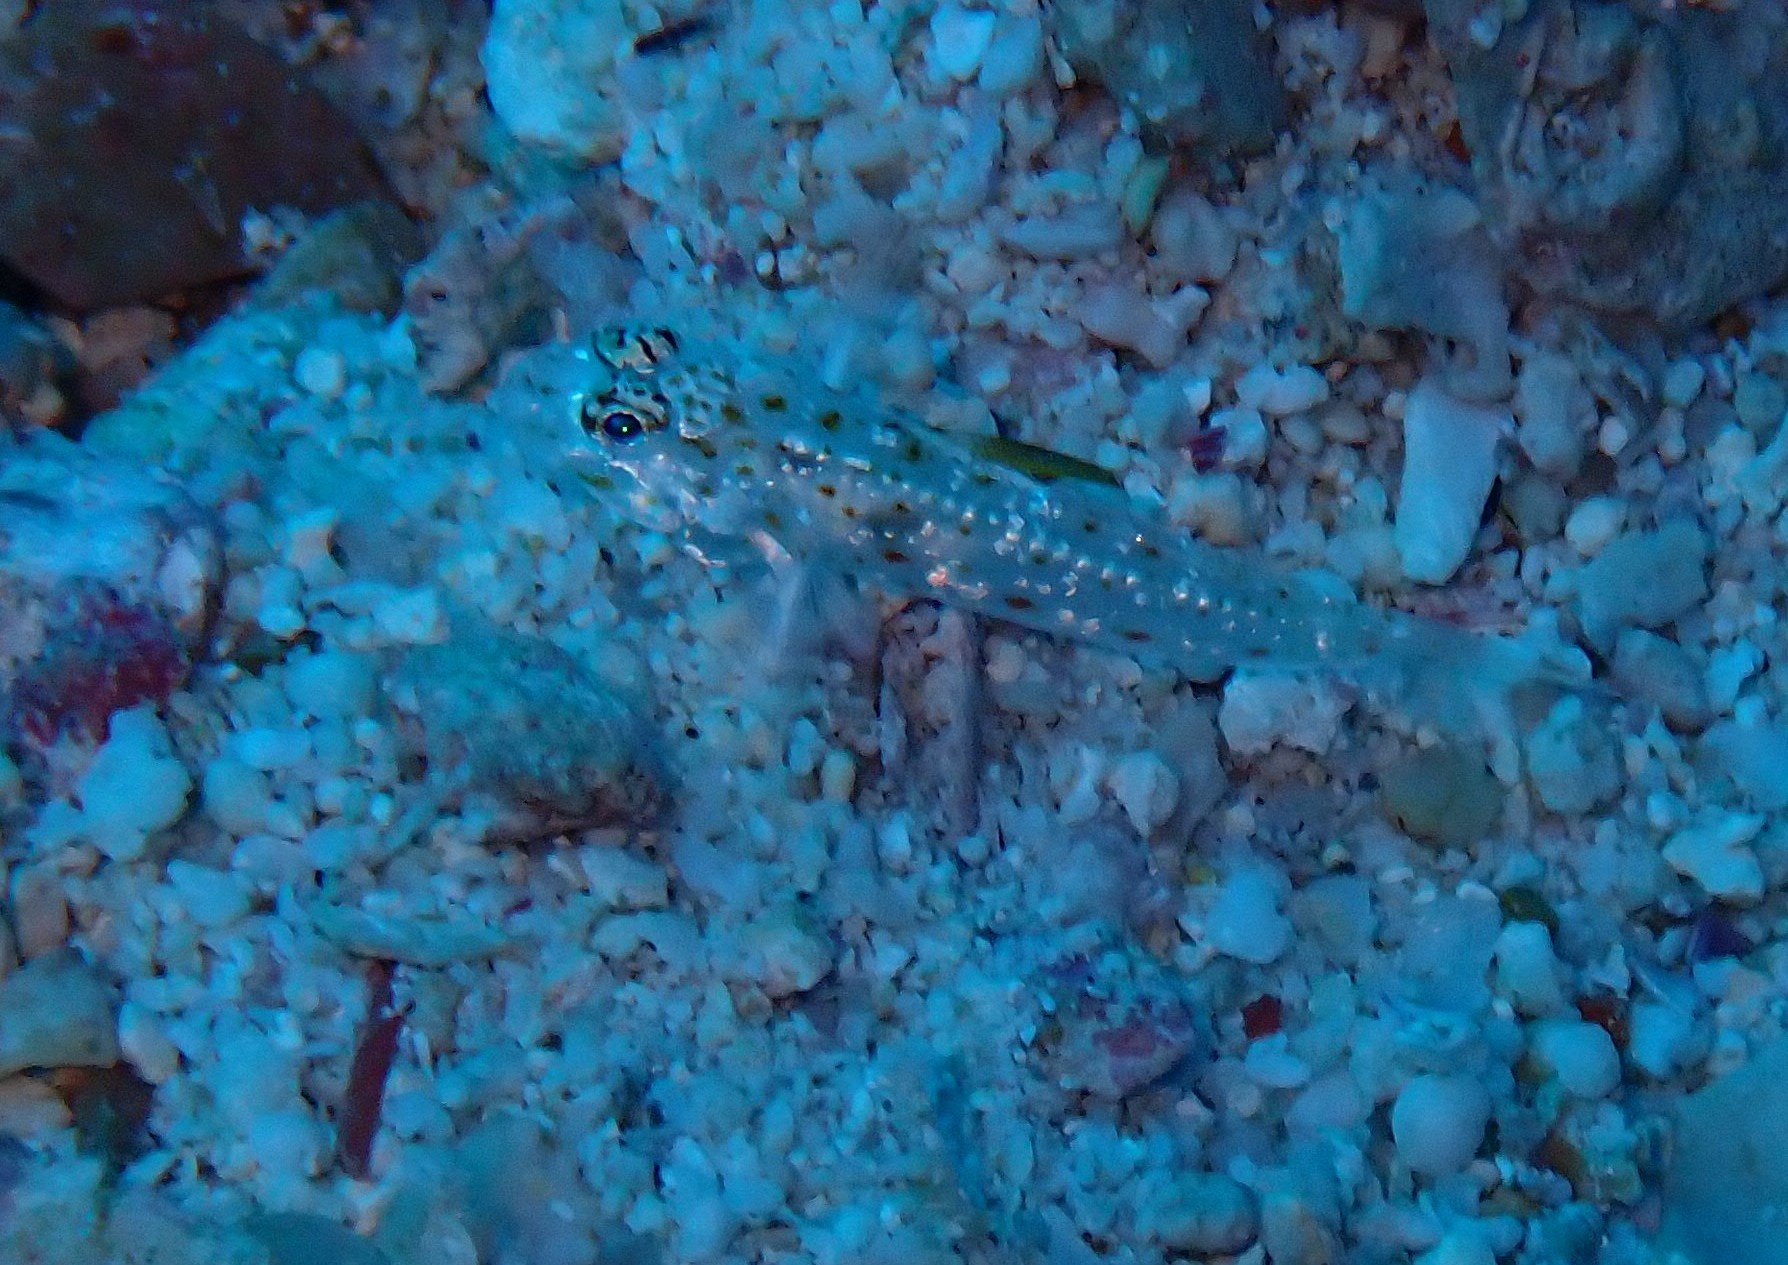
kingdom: Animalia
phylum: Chordata
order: Perciformes
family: Gobiidae
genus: Fusigobius
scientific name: Fusigobius melacron
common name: Blacktip sandgoby
